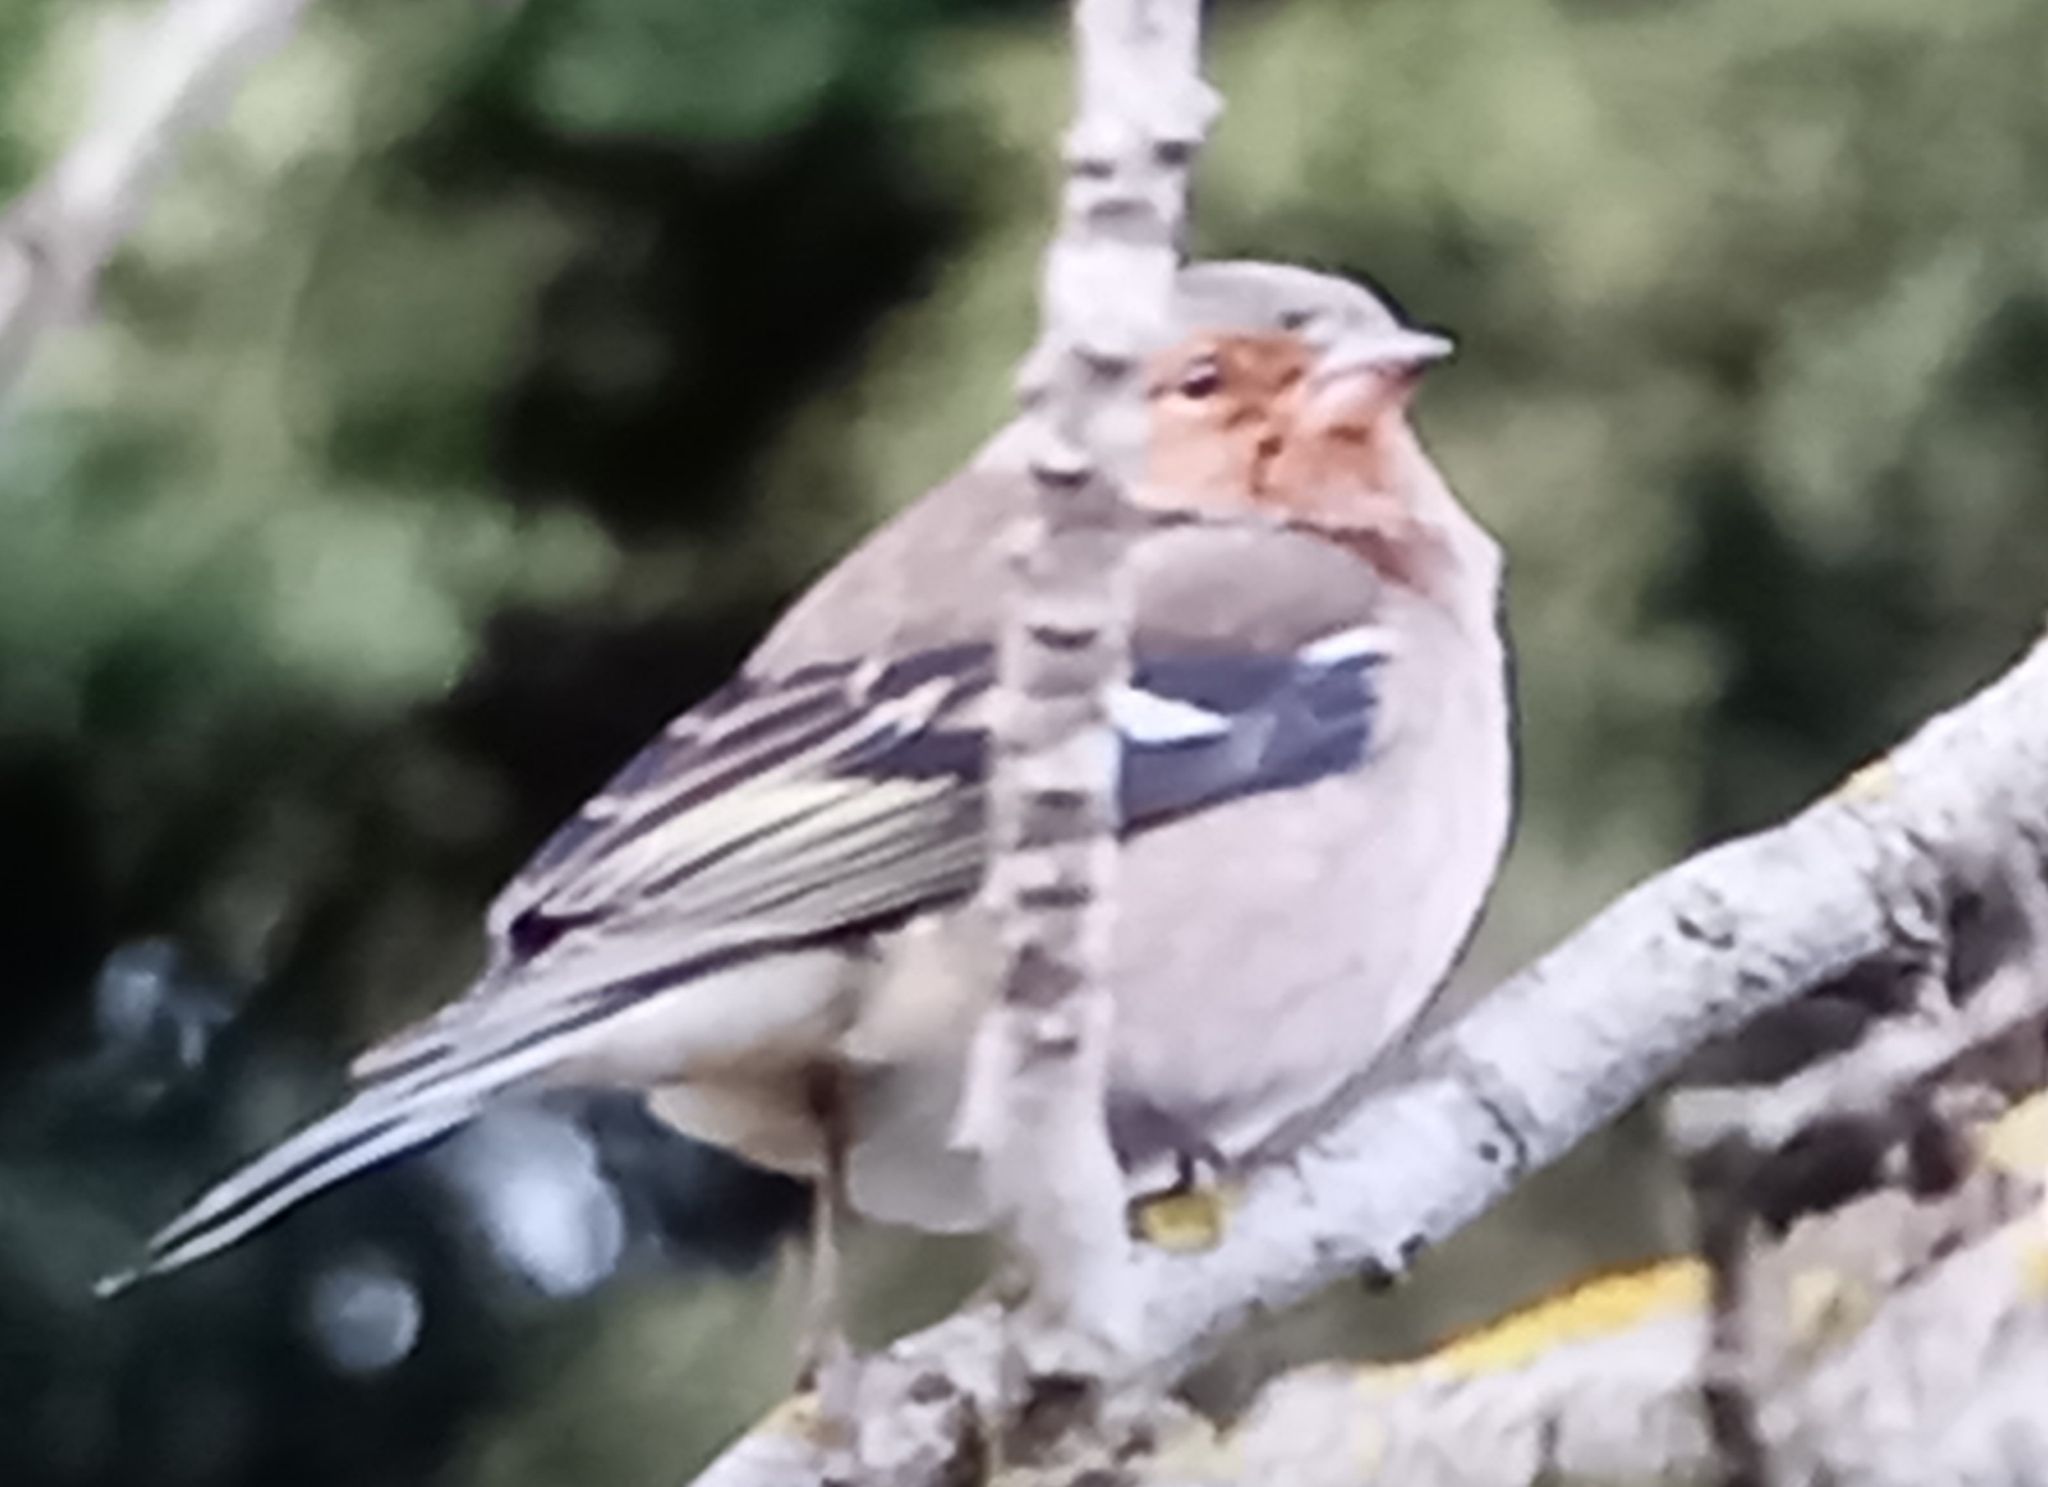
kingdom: Animalia
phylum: Chordata
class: Aves
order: Passeriformes
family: Fringillidae
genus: Fringilla
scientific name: Fringilla coelebs
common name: Common chaffinch
